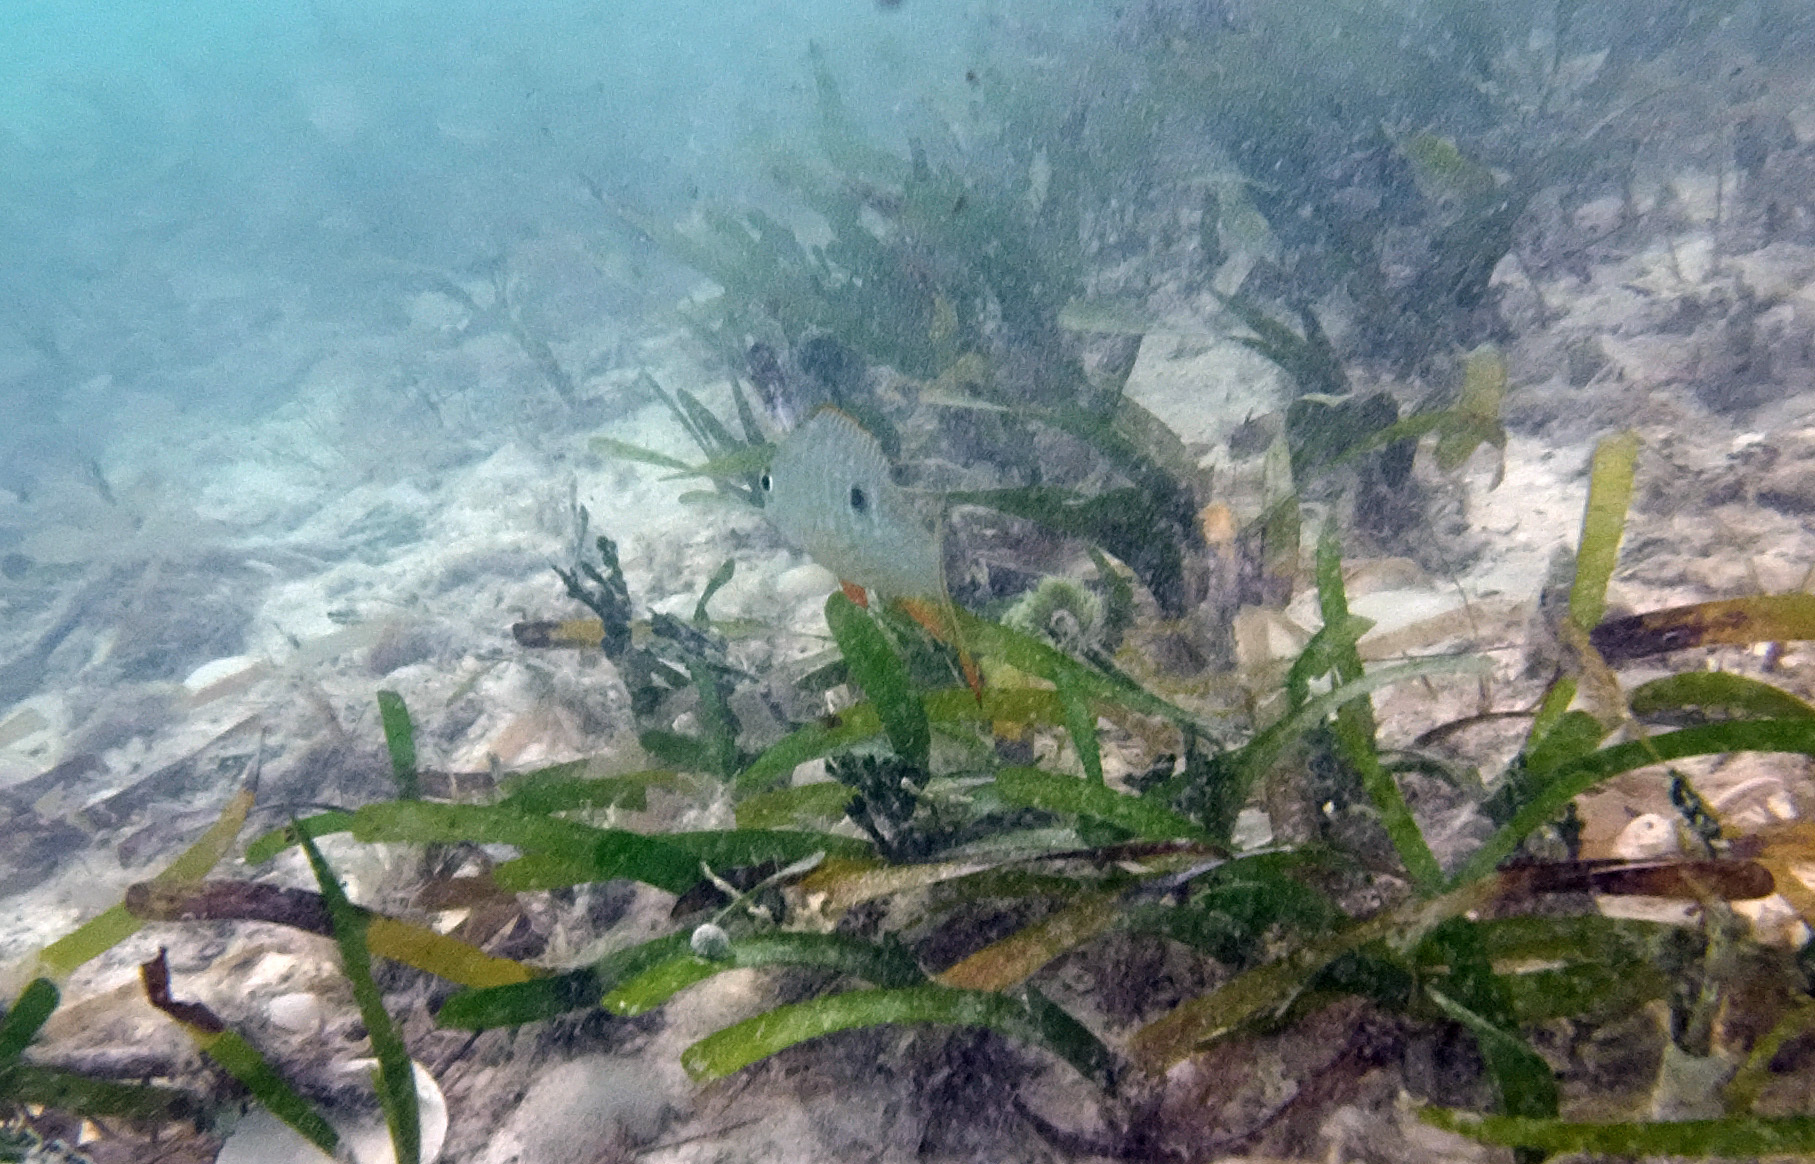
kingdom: Animalia
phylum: Chordata
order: Perciformes
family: Lutjanidae
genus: Lutjanus
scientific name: Lutjanus analis
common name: Mutton snapper
